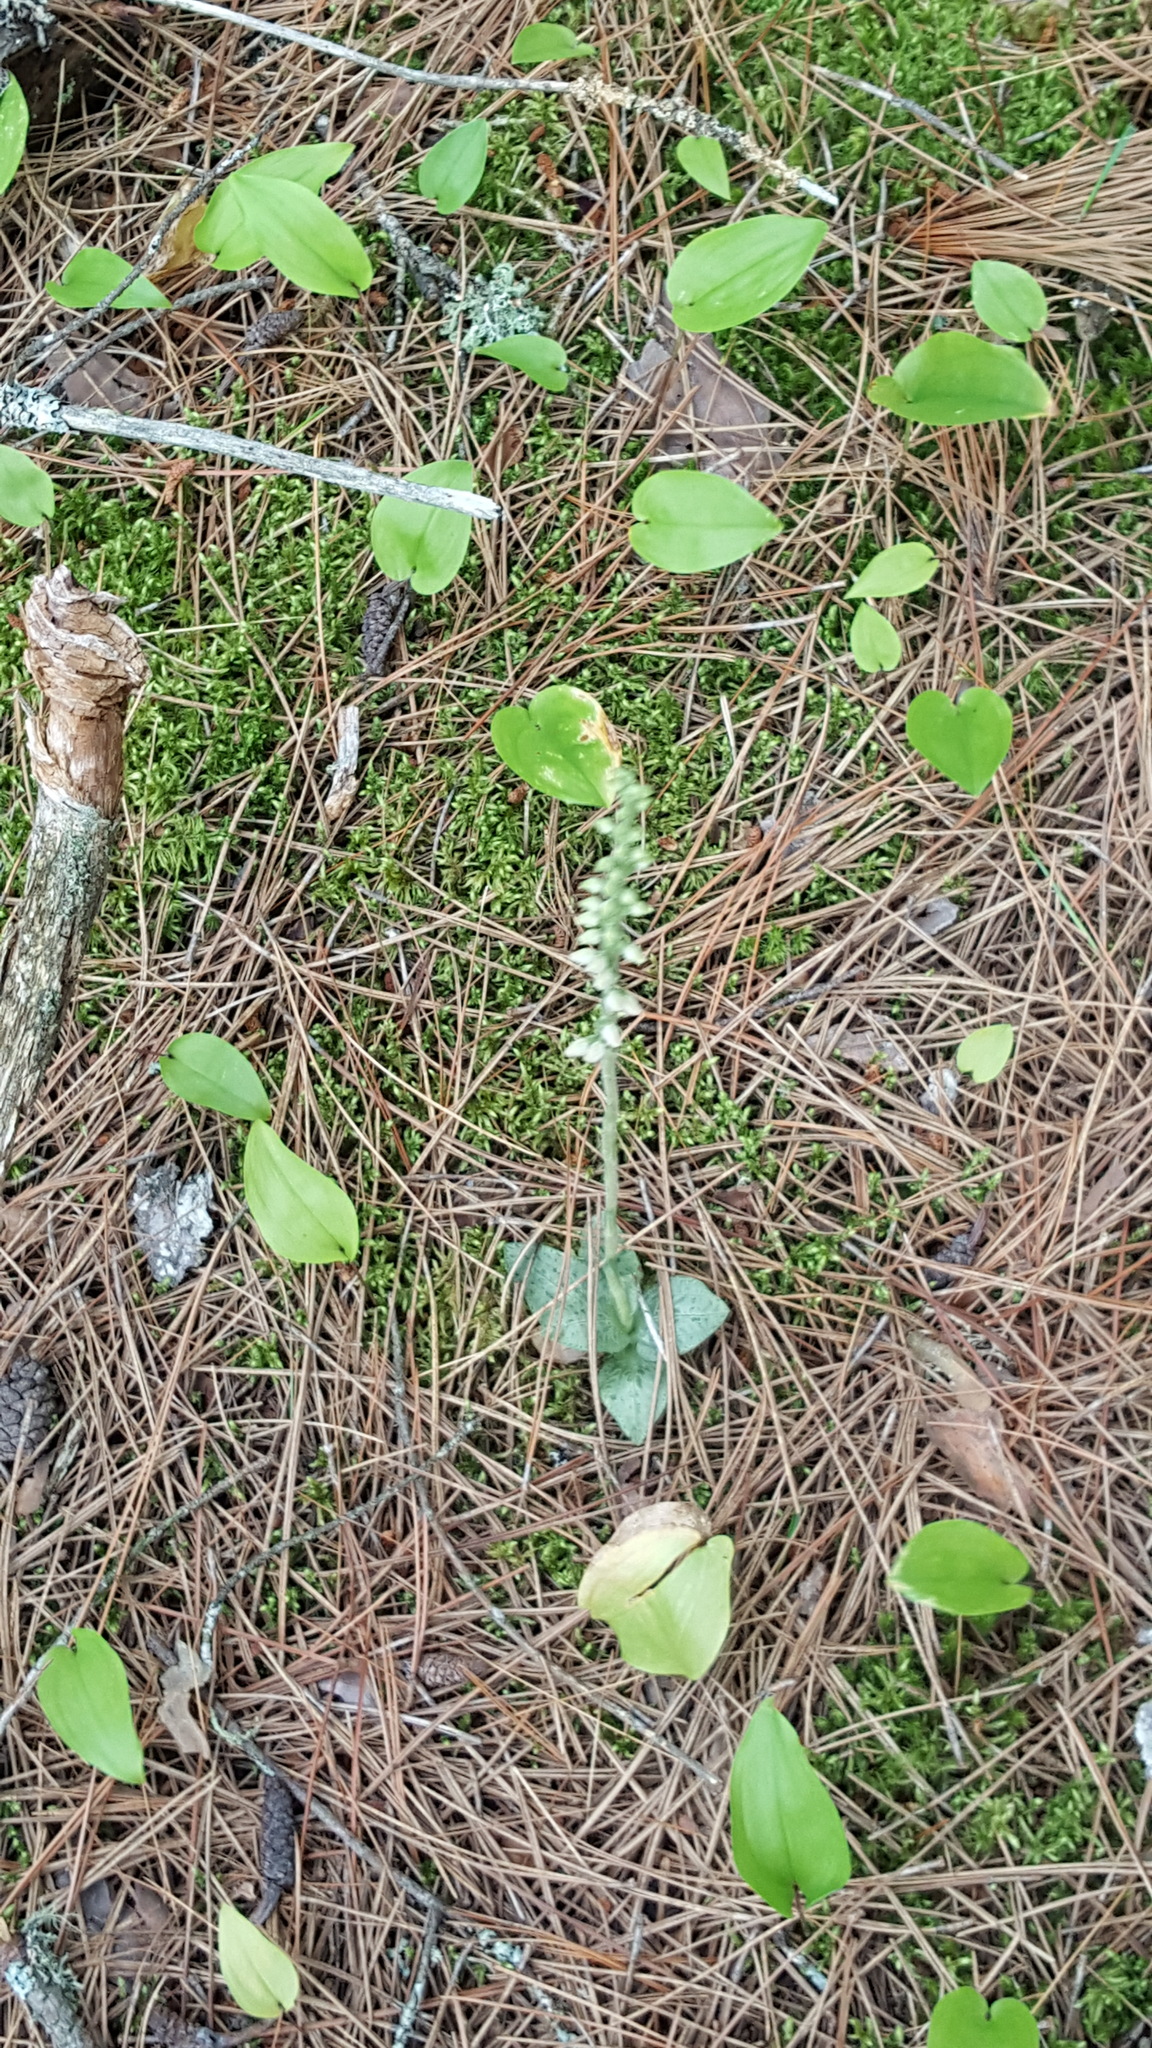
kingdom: Plantae
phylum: Tracheophyta
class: Liliopsida
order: Asparagales
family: Orchidaceae
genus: Goodyera
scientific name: Goodyera repens
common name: Creeping lady's-tresses
